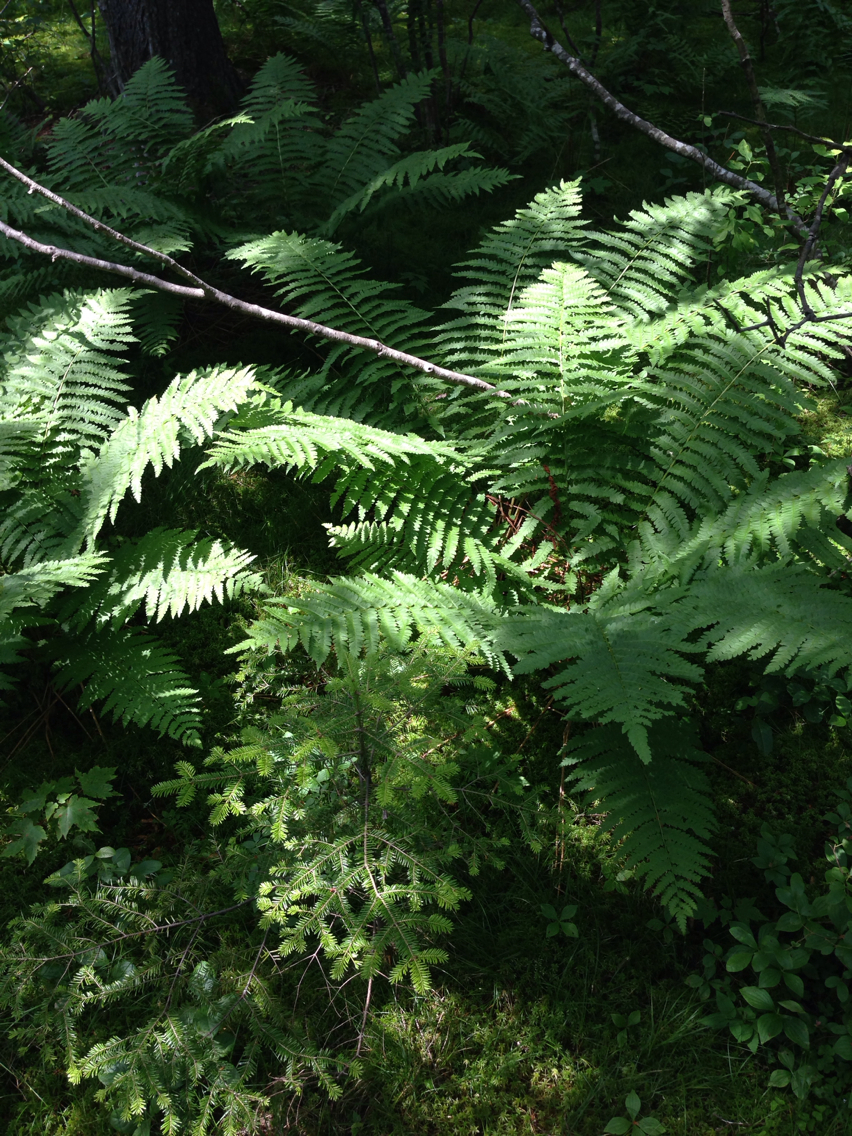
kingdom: Plantae
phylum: Tracheophyta
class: Polypodiopsida
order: Osmundales
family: Osmundaceae
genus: Osmundastrum
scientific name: Osmundastrum cinnamomeum
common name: Cinnamon fern
